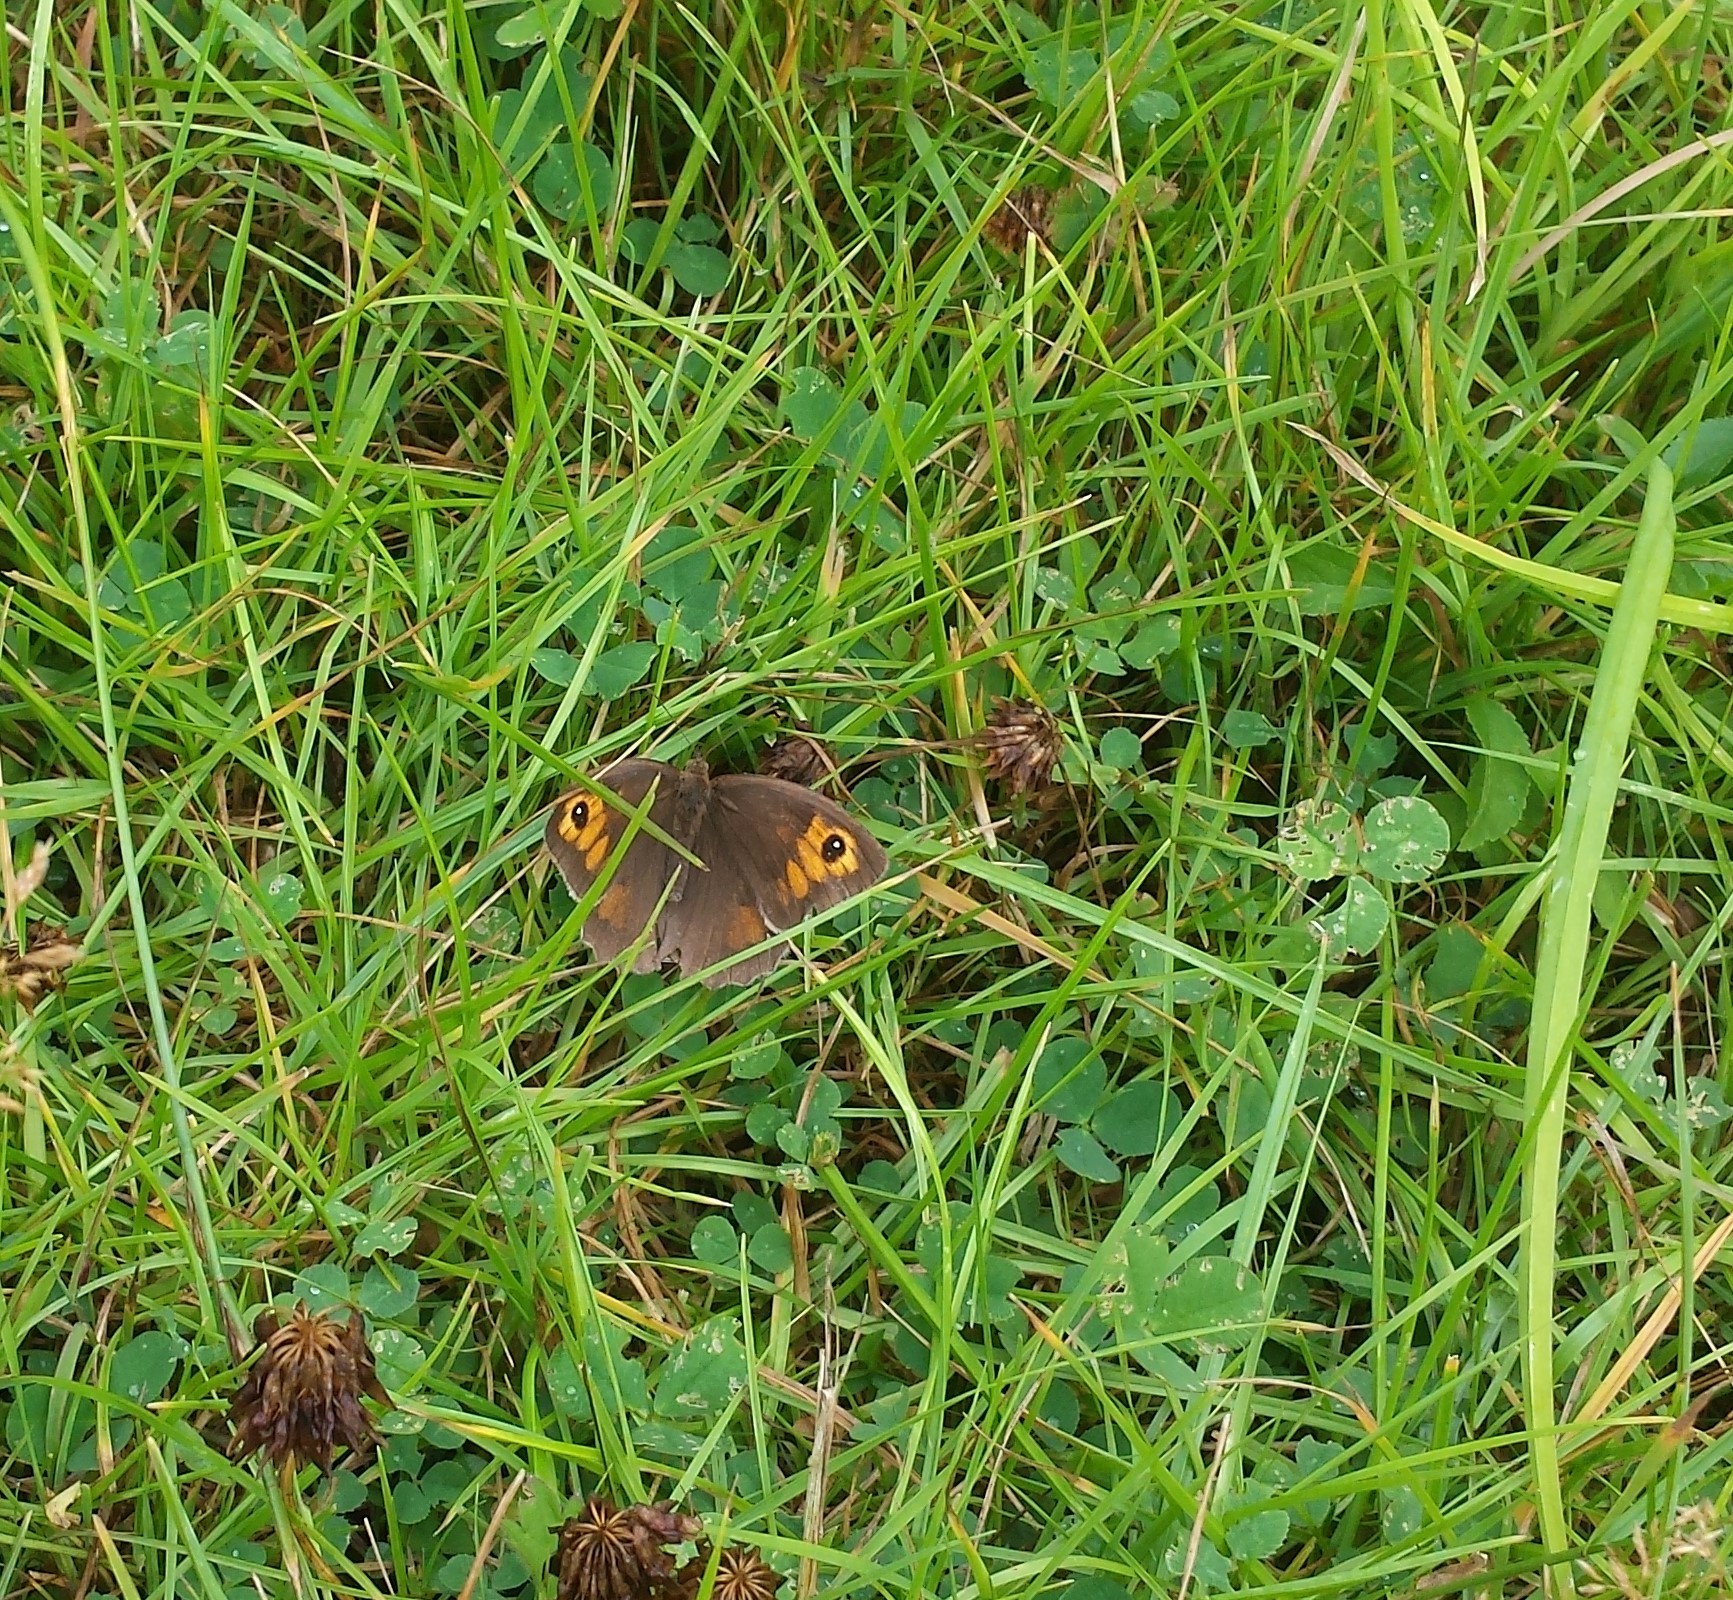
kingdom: Animalia
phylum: Arthropoda
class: Insecta
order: Lepidoptera
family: Nymphalidae
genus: Maniola
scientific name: Maniola jurtina
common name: Meadow brown
